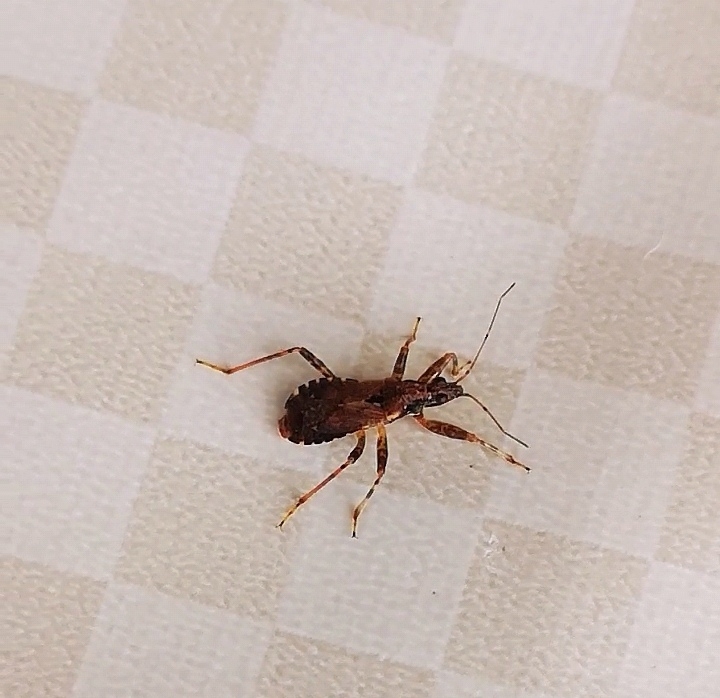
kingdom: Animalia
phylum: Arthropoda
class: Insecta
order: Hemiptera
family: Nabidae
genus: Himacerus
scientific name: Himacerus mirmicoides
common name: Ant damsel bug
